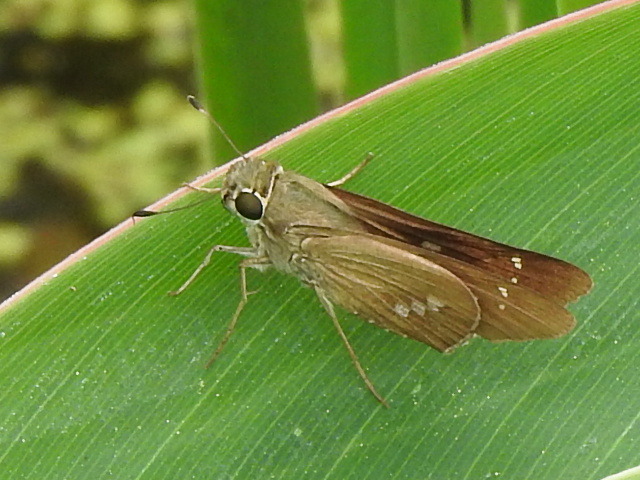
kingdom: Animalia
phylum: Arthropoda
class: Insecta
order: Lepidoptera
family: Hesperiidae
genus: Calpodes
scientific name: Calpodes ethlius
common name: Brazilian skipper
